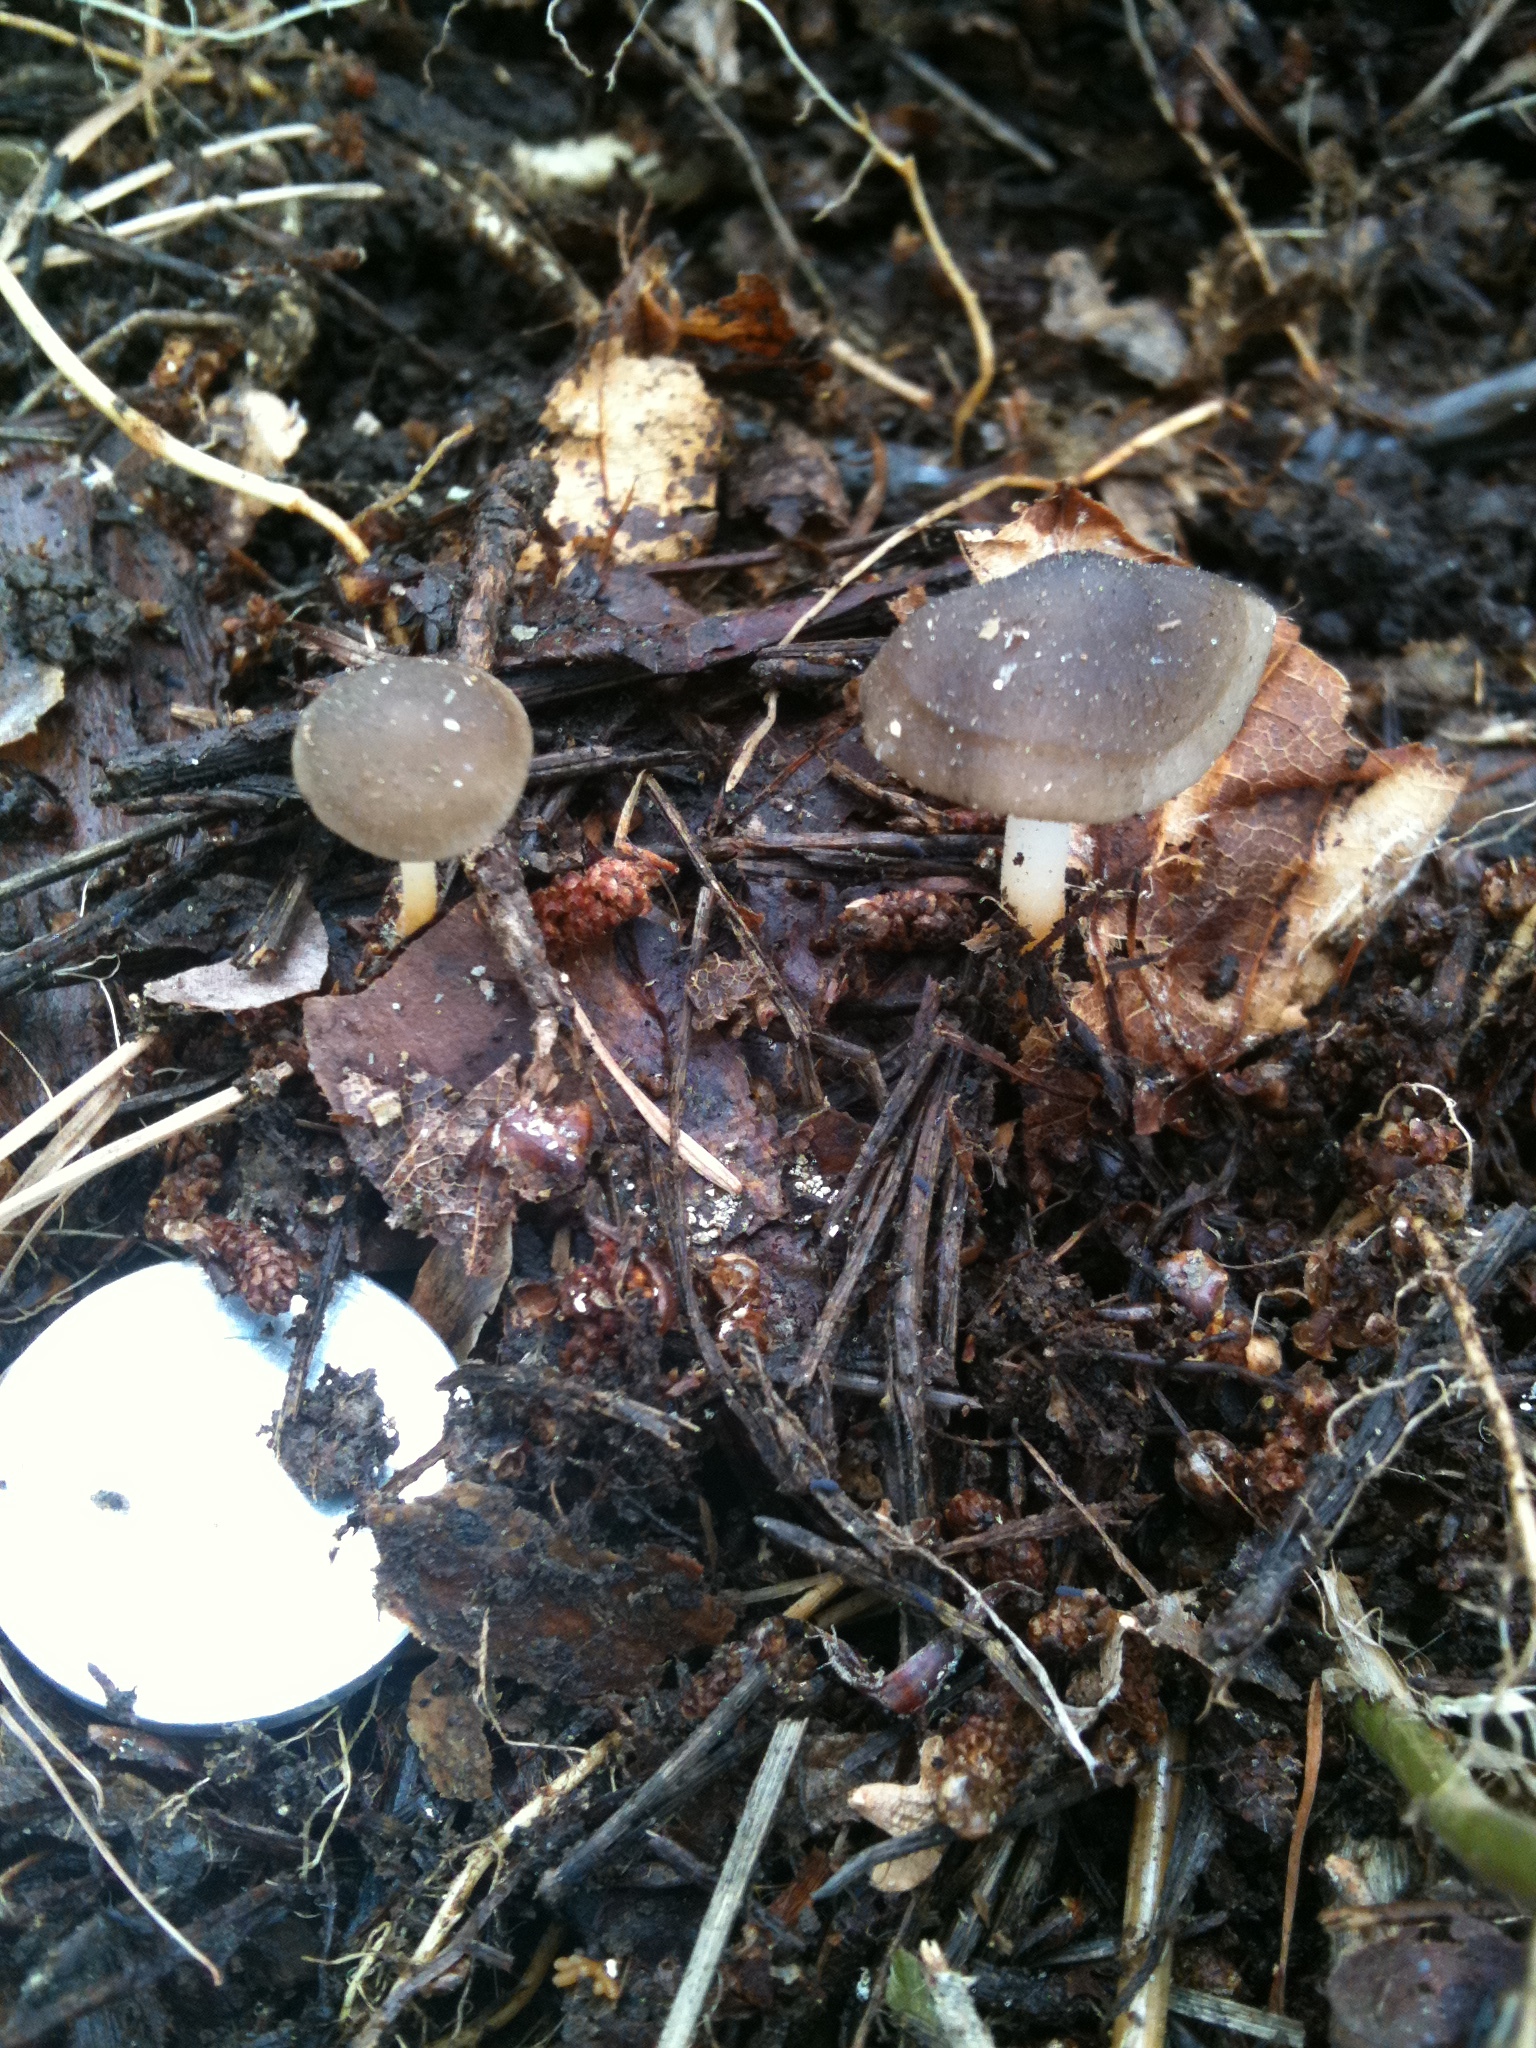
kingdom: Fungi
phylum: Basidiomycota
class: Agaricomycetes
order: Agaricales
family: Physalacriaceae
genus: Strobilurus
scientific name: Strobilurus stephanocystis
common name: Russian conecap
